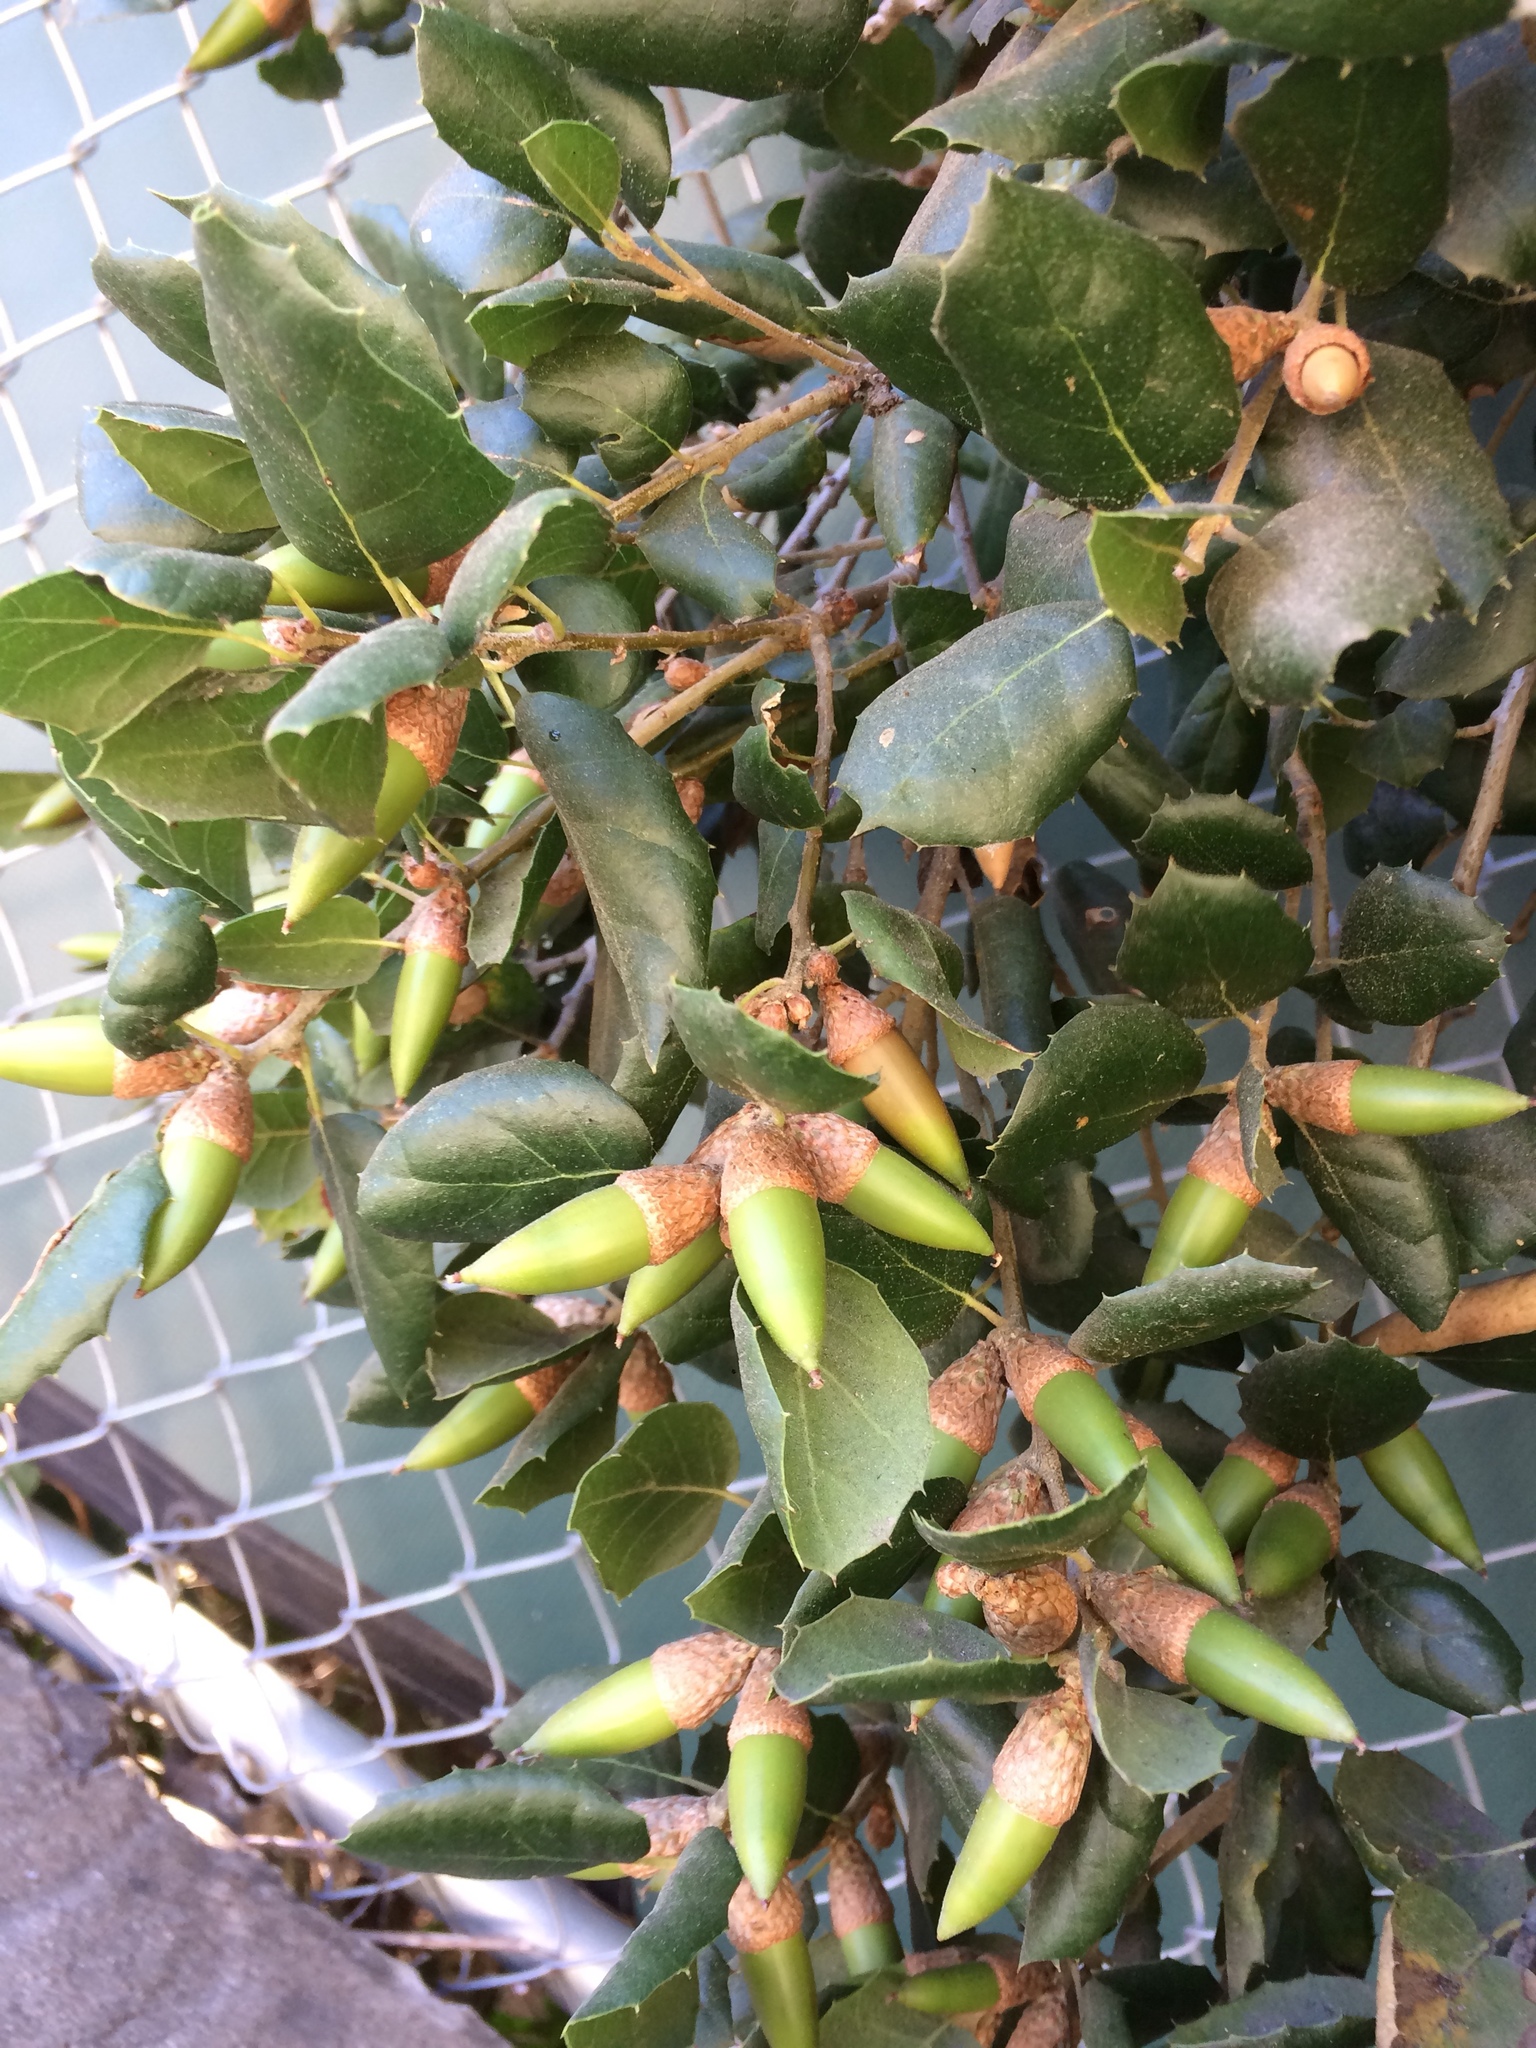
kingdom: Plantae
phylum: Tracheophyta
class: Magnoliopsida
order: Fagales
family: Fagaceae
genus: Quercus
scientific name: Quercus agrifolia
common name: California live oak
